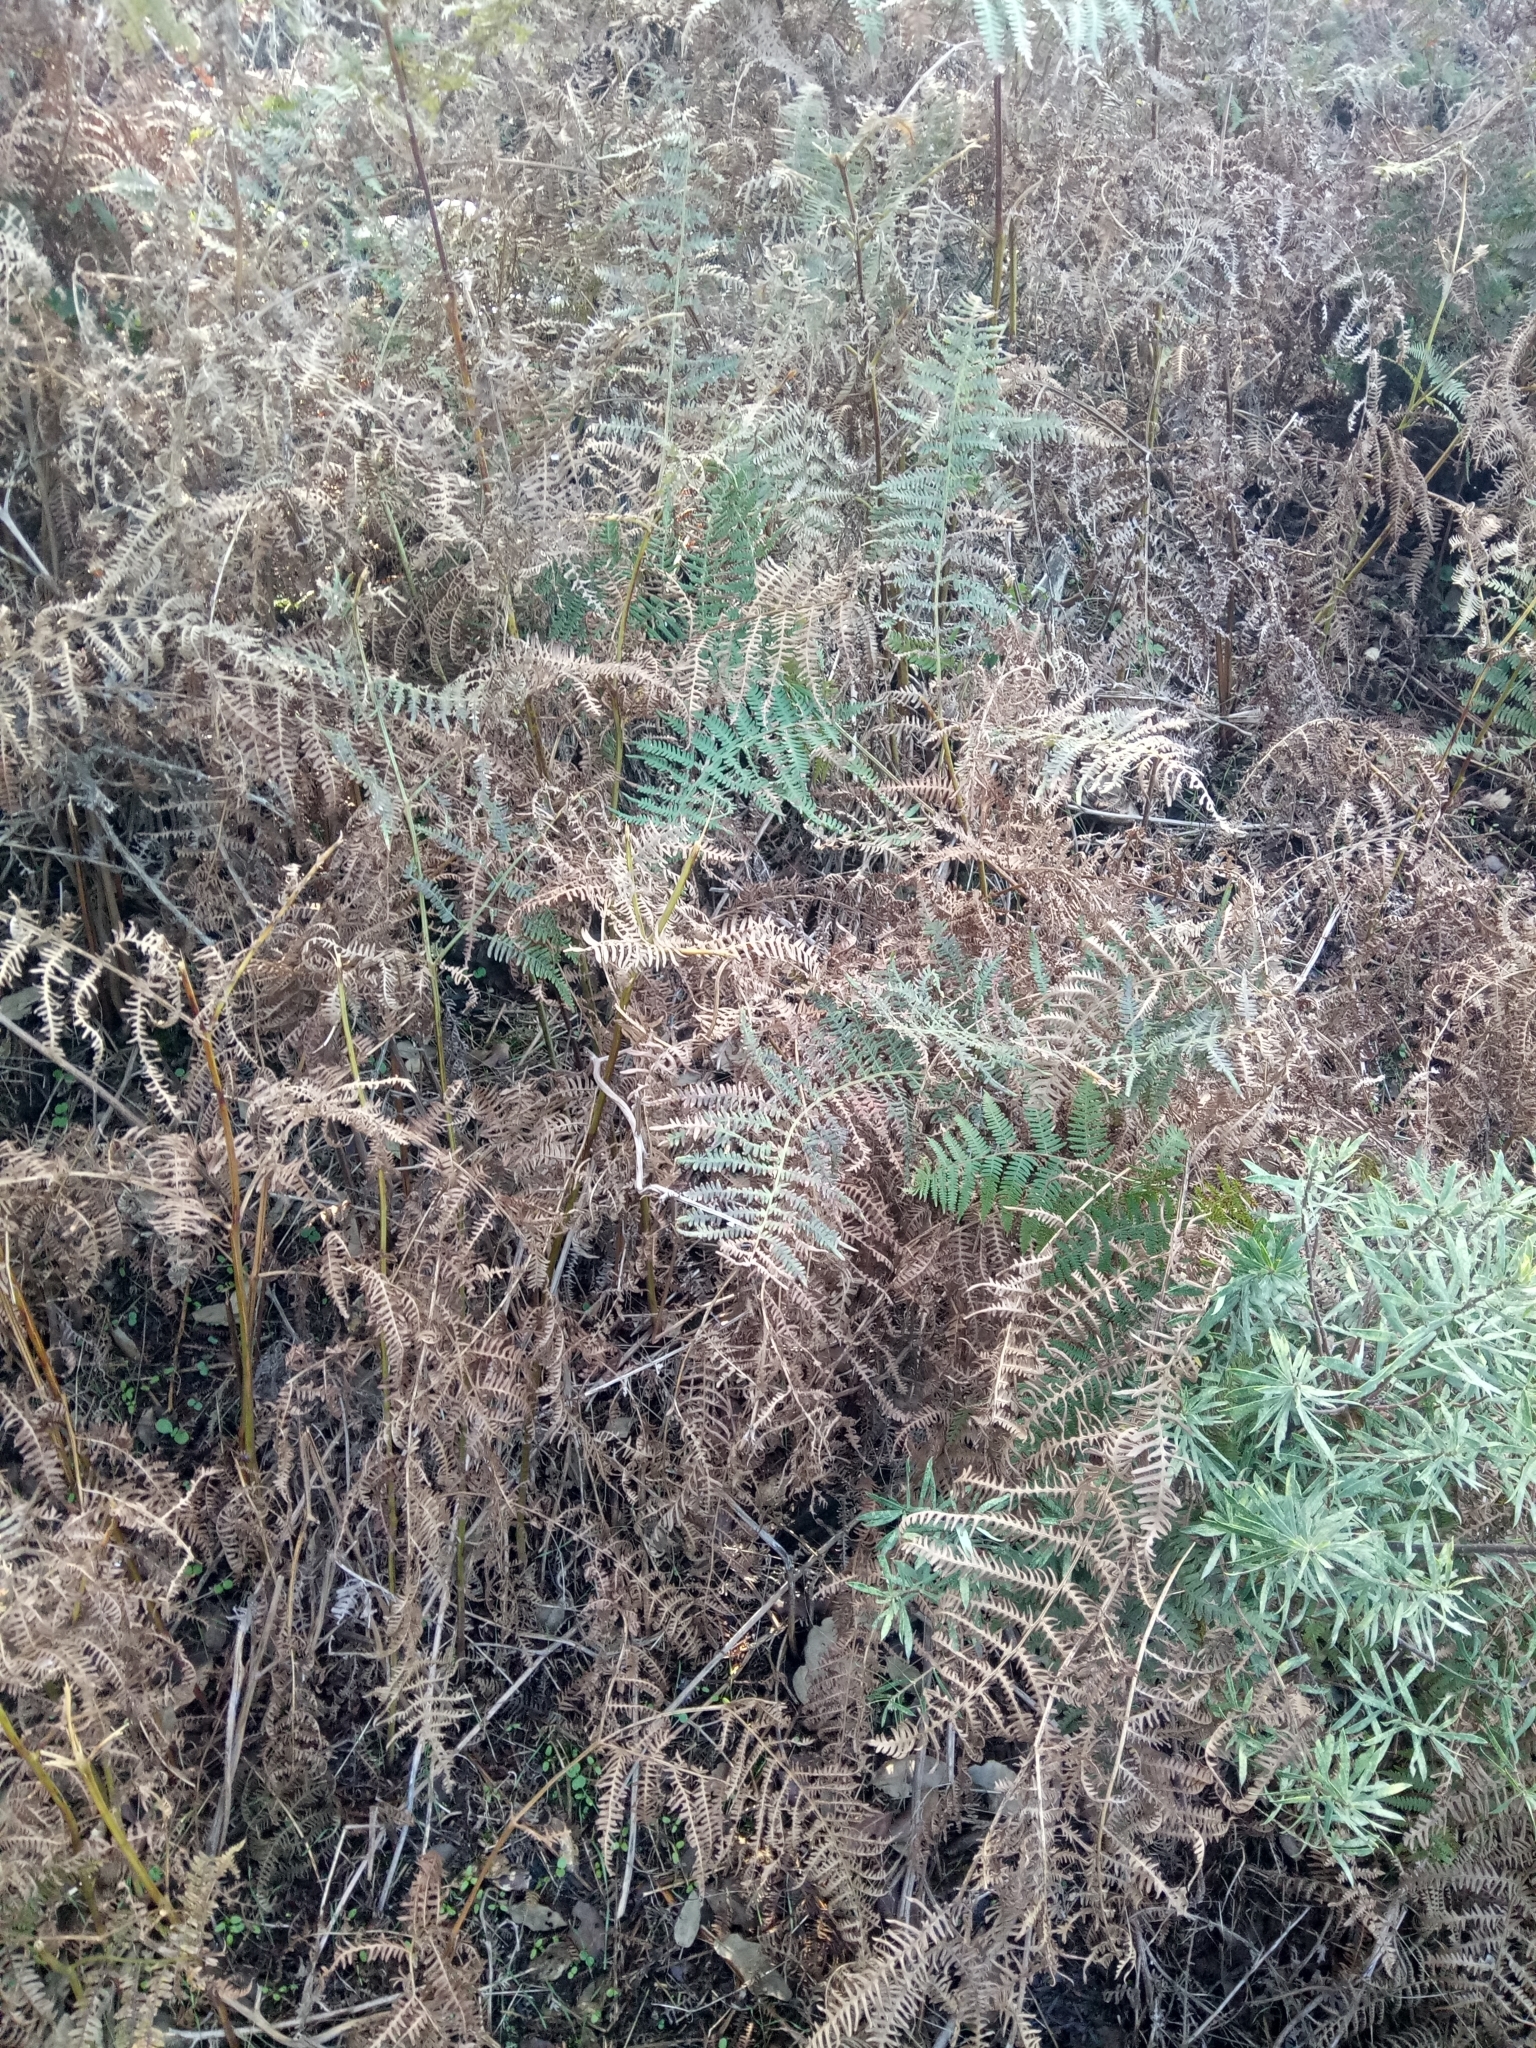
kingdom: Plantae
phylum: Tracheophyta
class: Polypodiopsida
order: Polypodiales
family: Dennstaedtiaceae
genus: Pteridium
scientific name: Pteridium aquilinum
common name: Bracken
